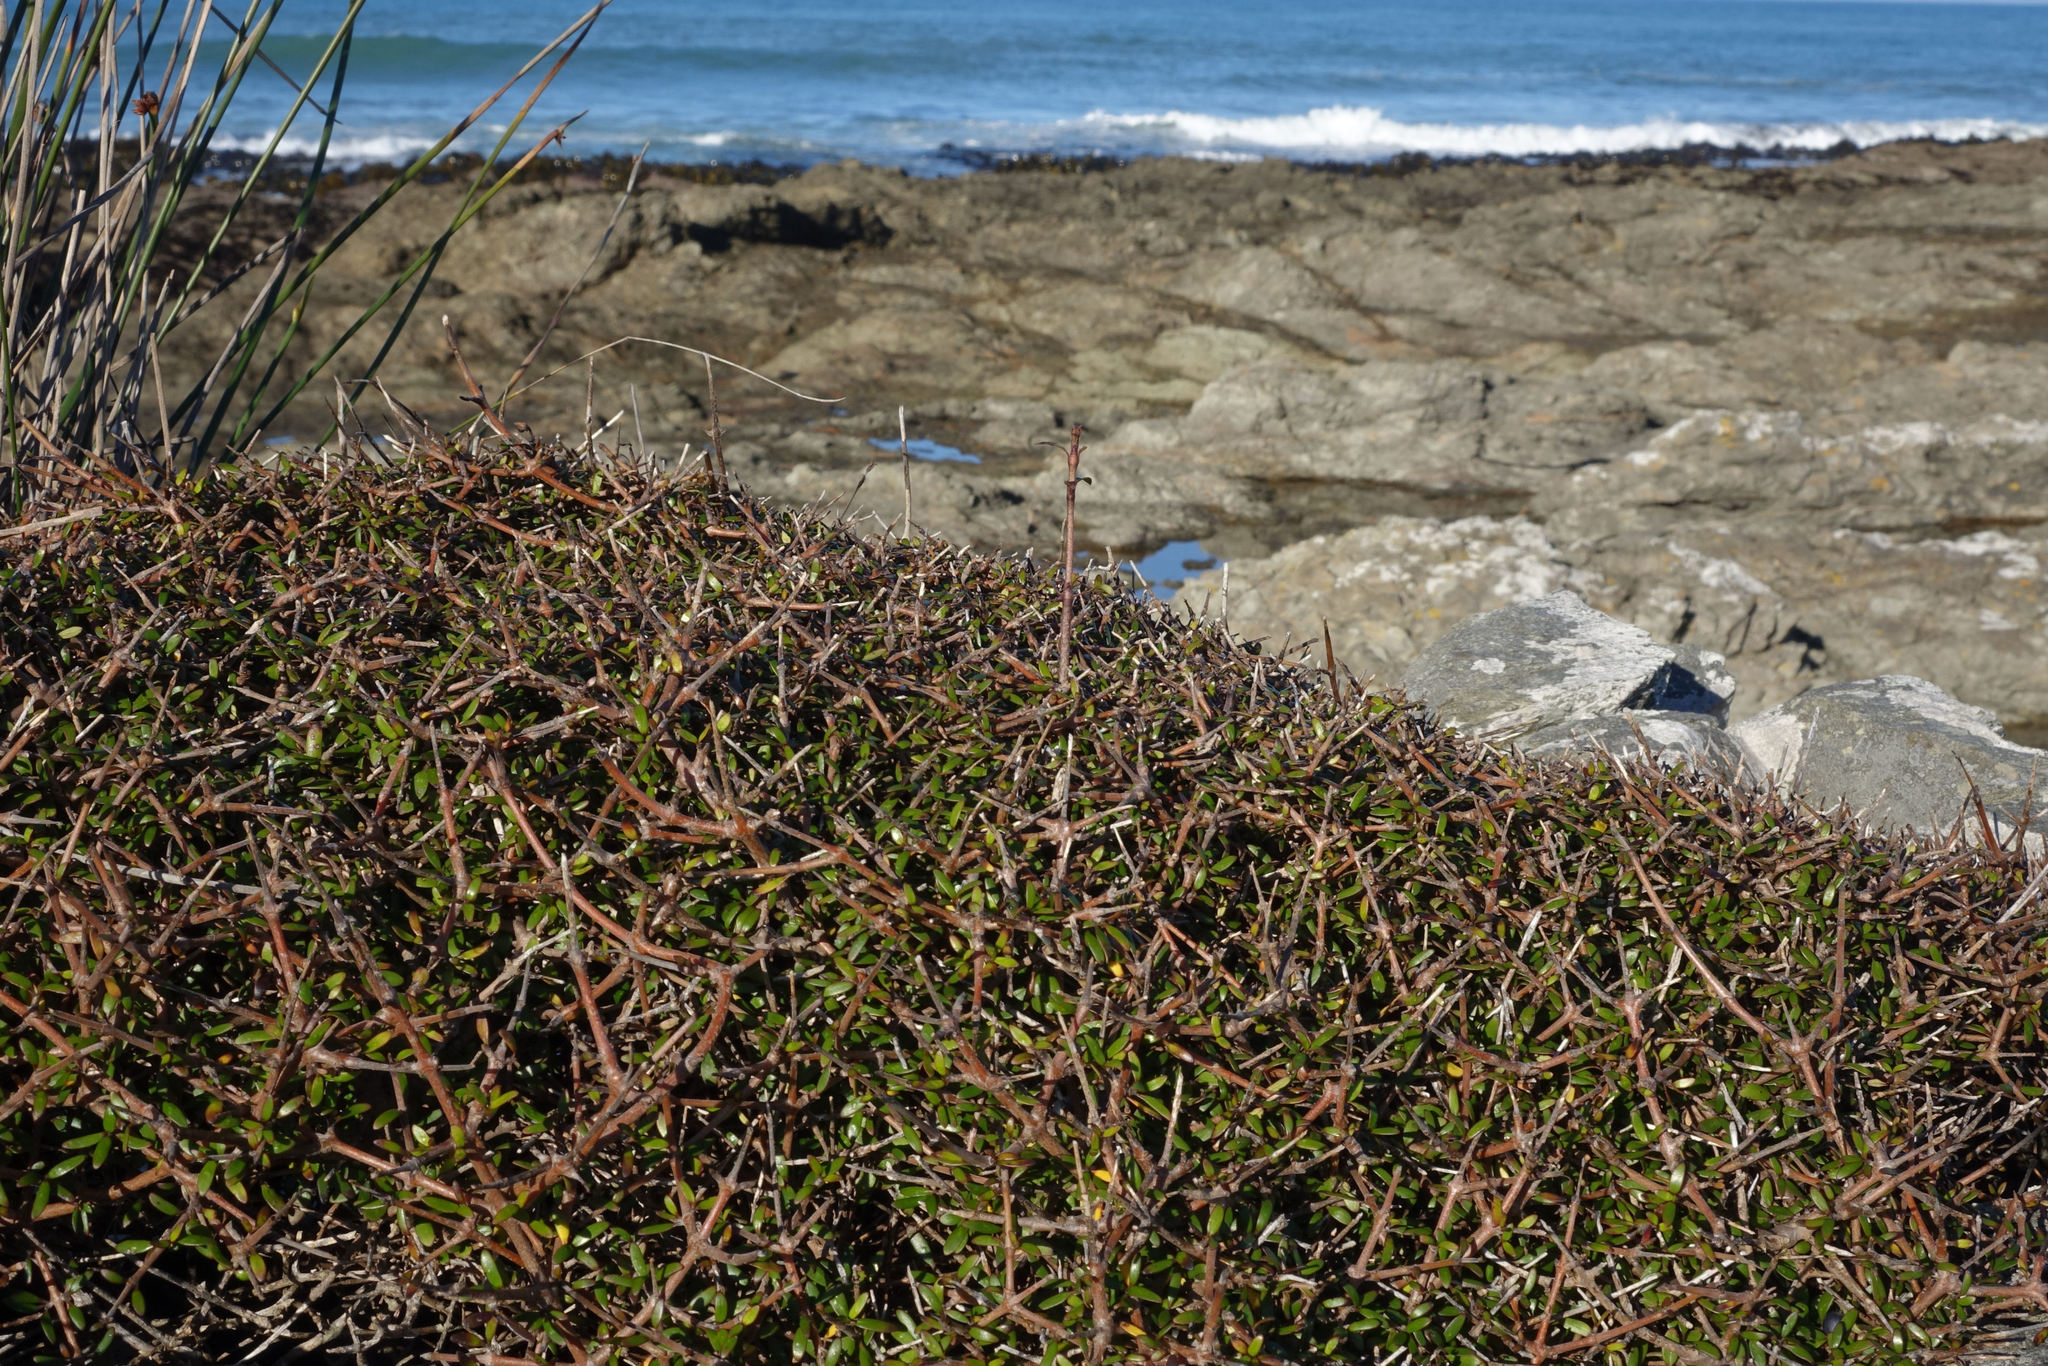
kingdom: Plantae
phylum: Tracheophyta
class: Magnoliopsida
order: Gentianales
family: Rubiaceae
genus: Coprosma
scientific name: Coprosma propinqua
